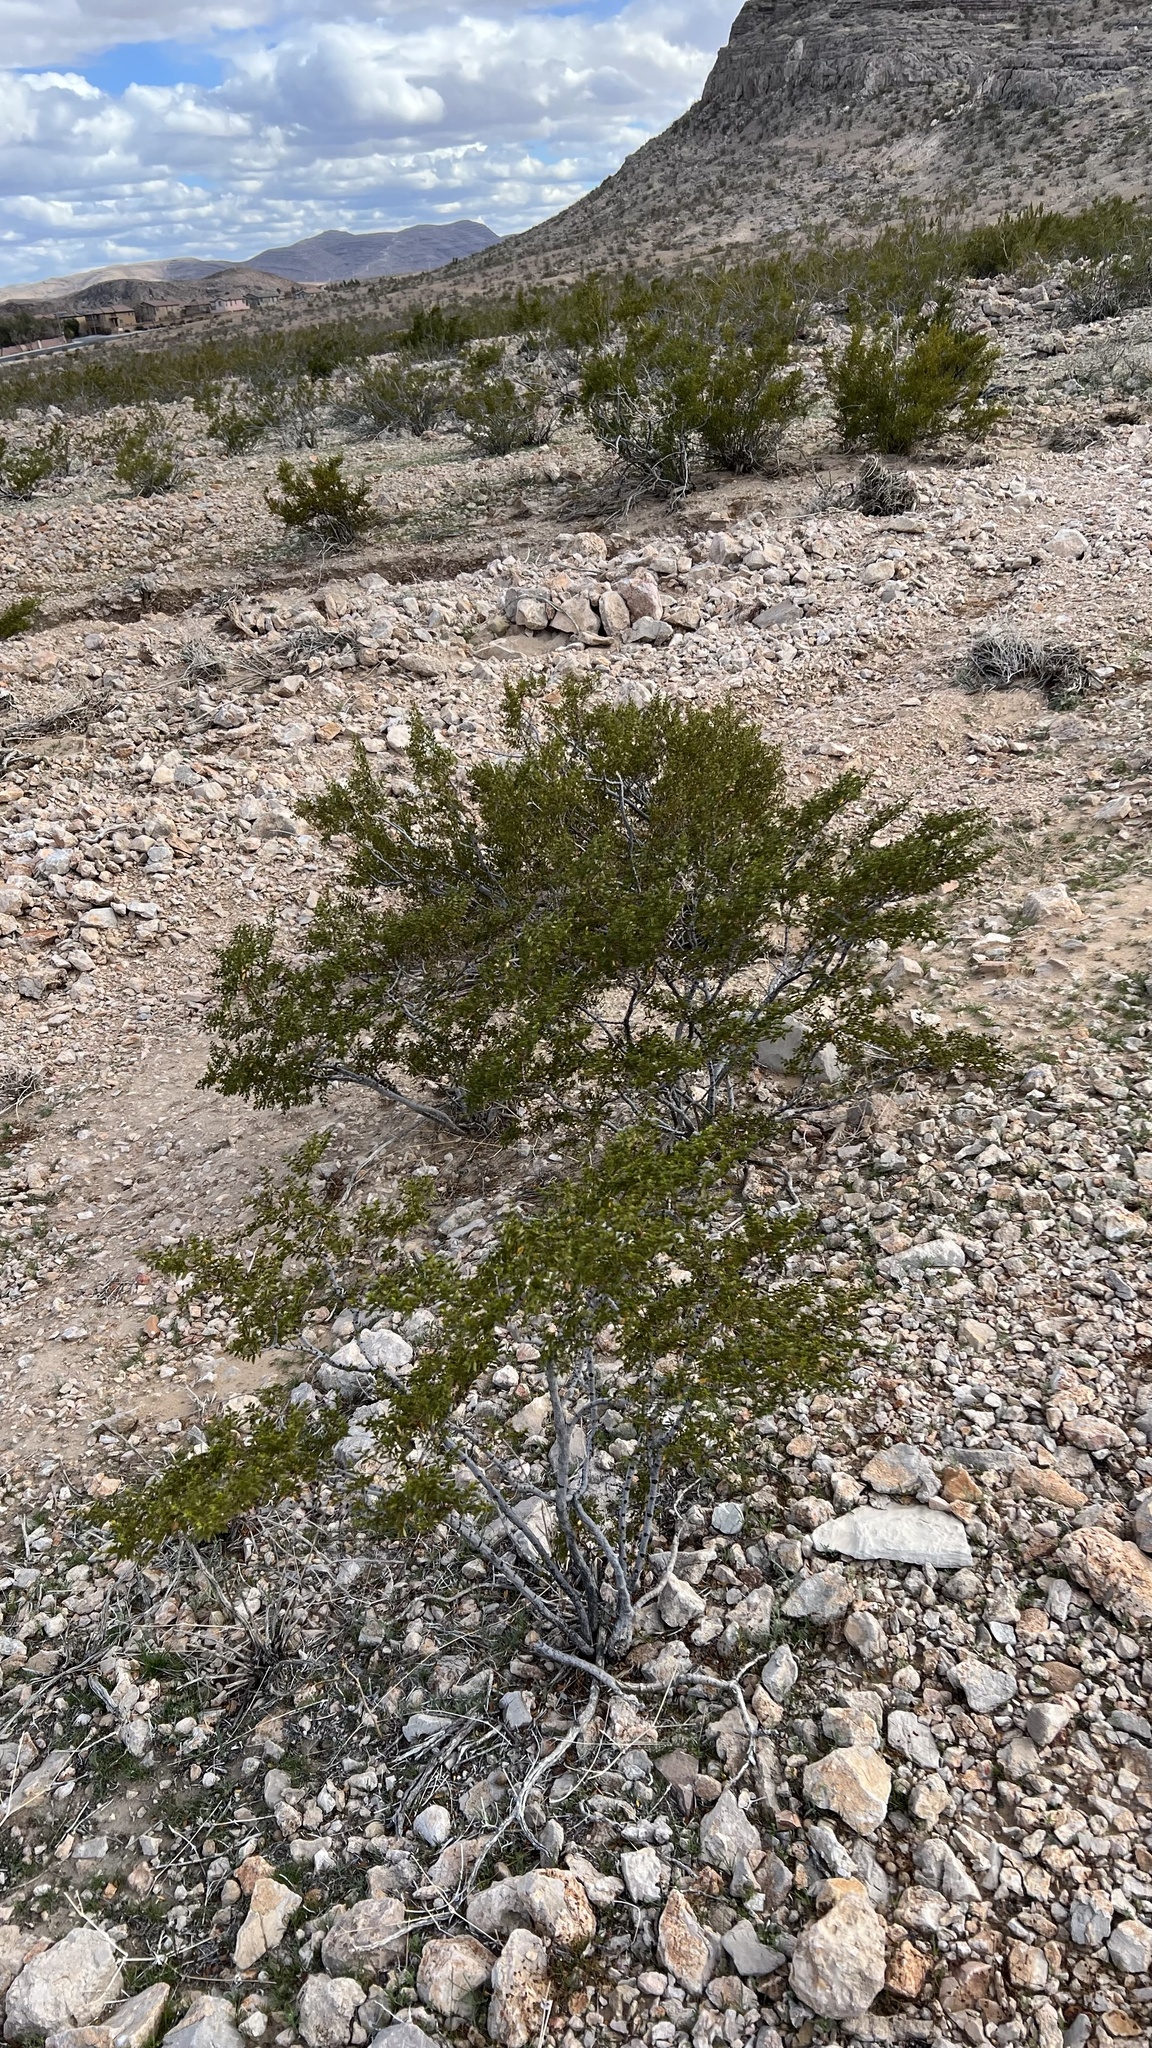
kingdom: Plantae
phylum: Tracheophyta
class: Magnoliopsida
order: Zygophyllales
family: Zygophyllaceae
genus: Larrea
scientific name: Larrea tridentata
